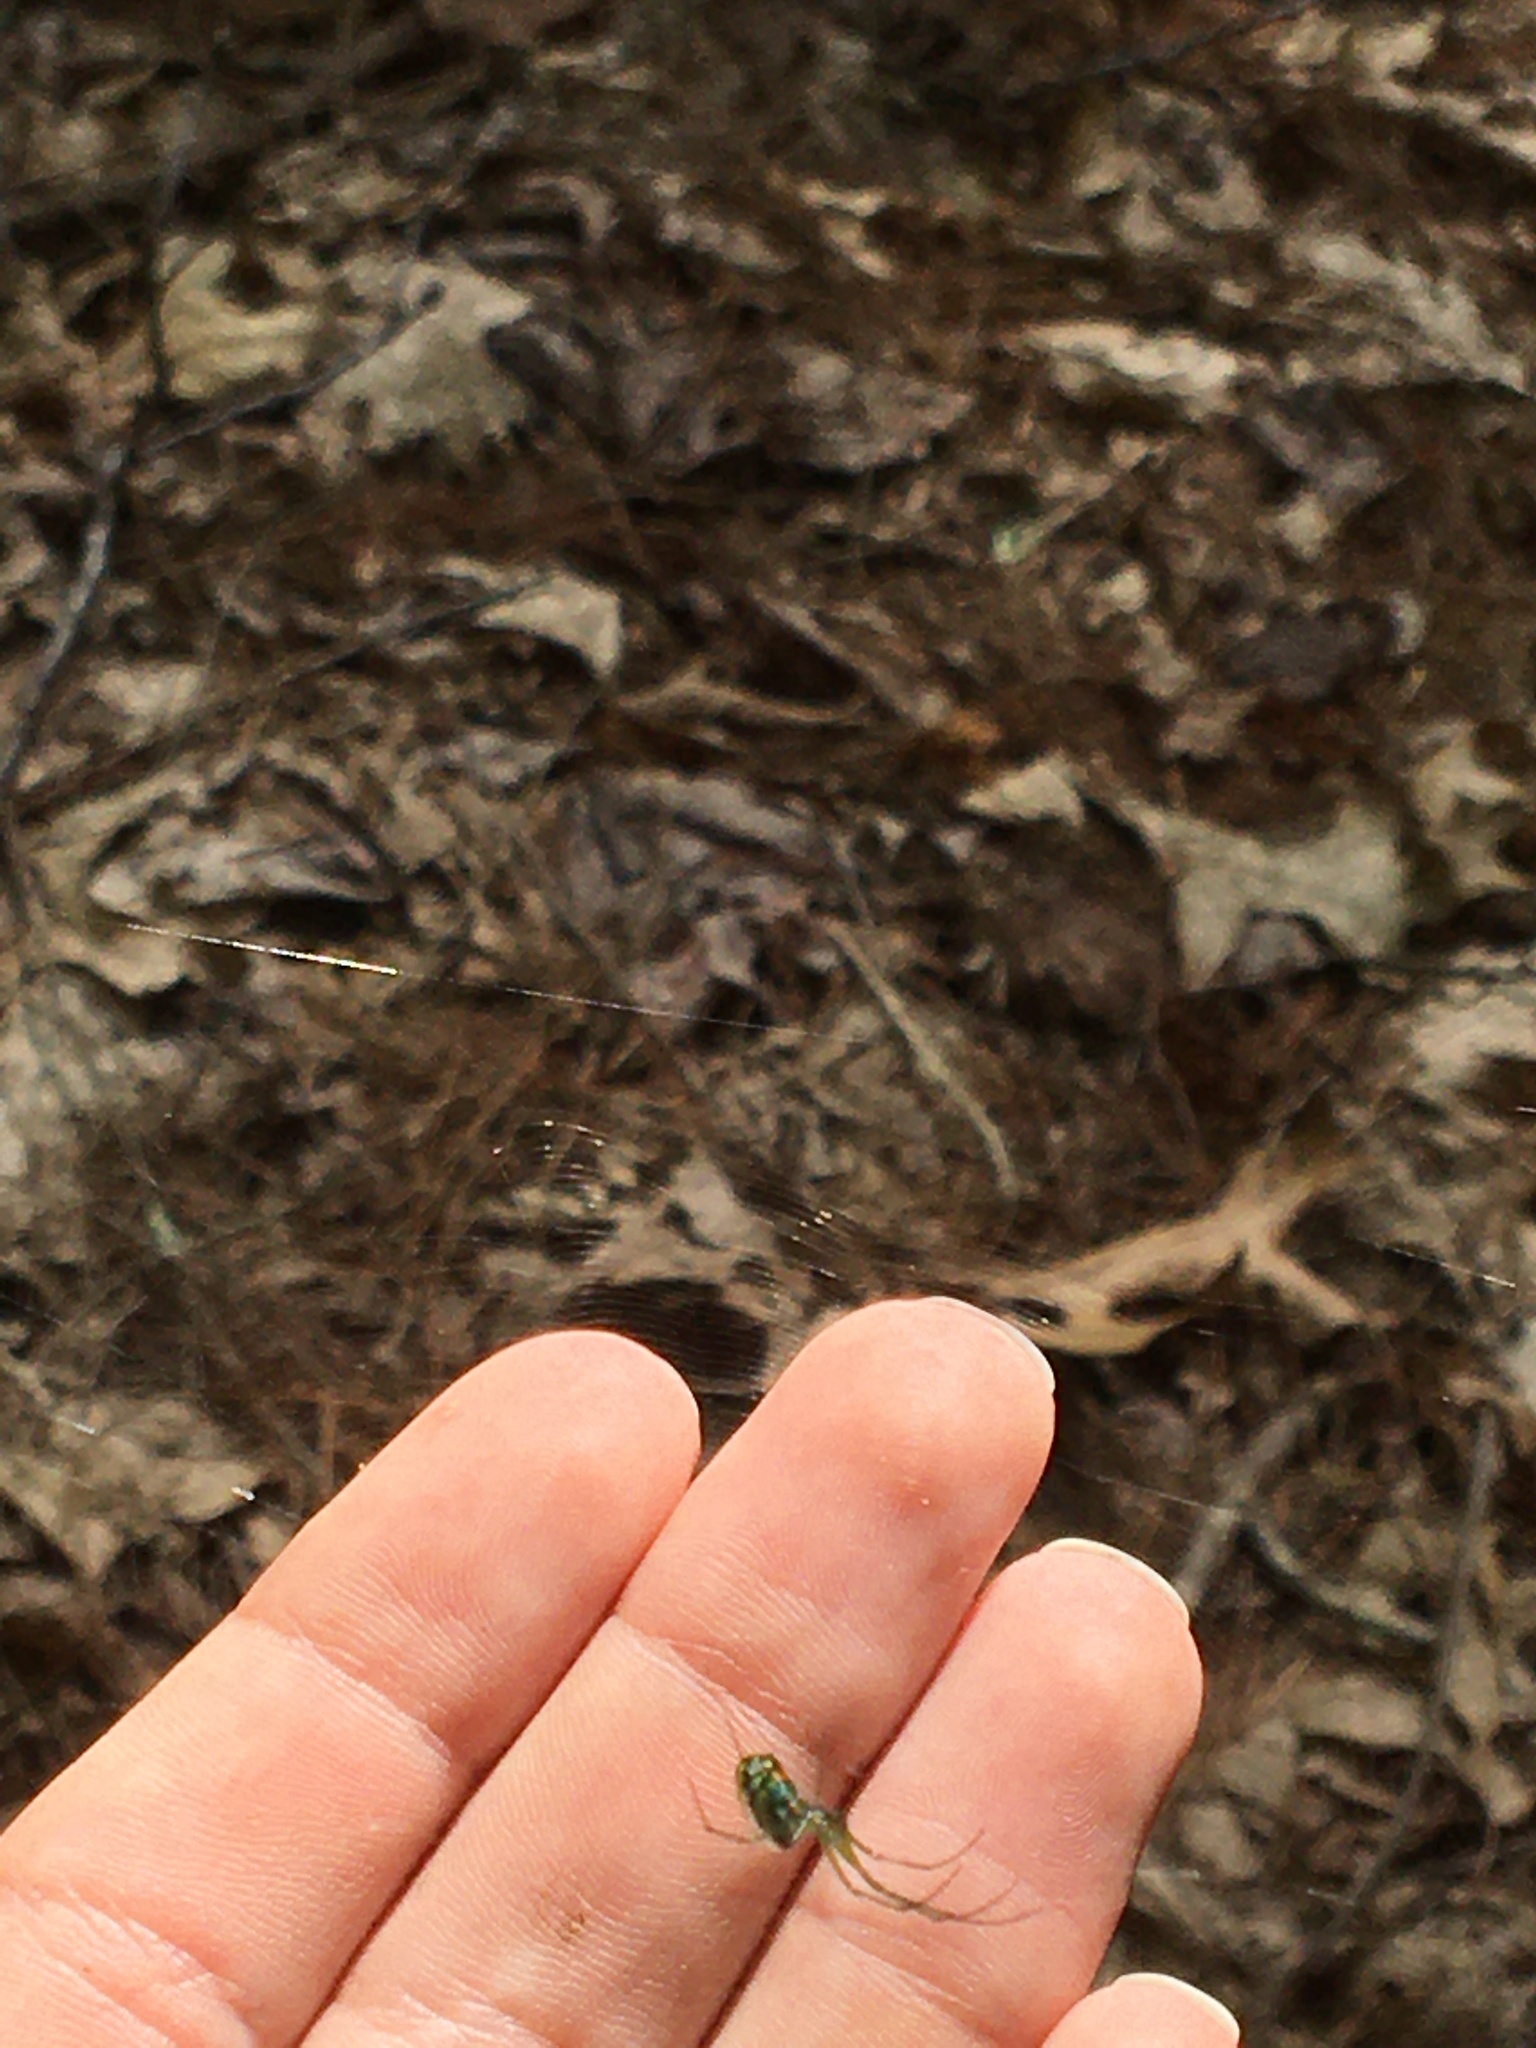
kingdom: Animalia
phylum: Arthropoda
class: Arachnida
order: Araneae
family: Tetragnathidae
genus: Leucauge
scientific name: Leucauge venusta
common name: Longjawed orb weavers
